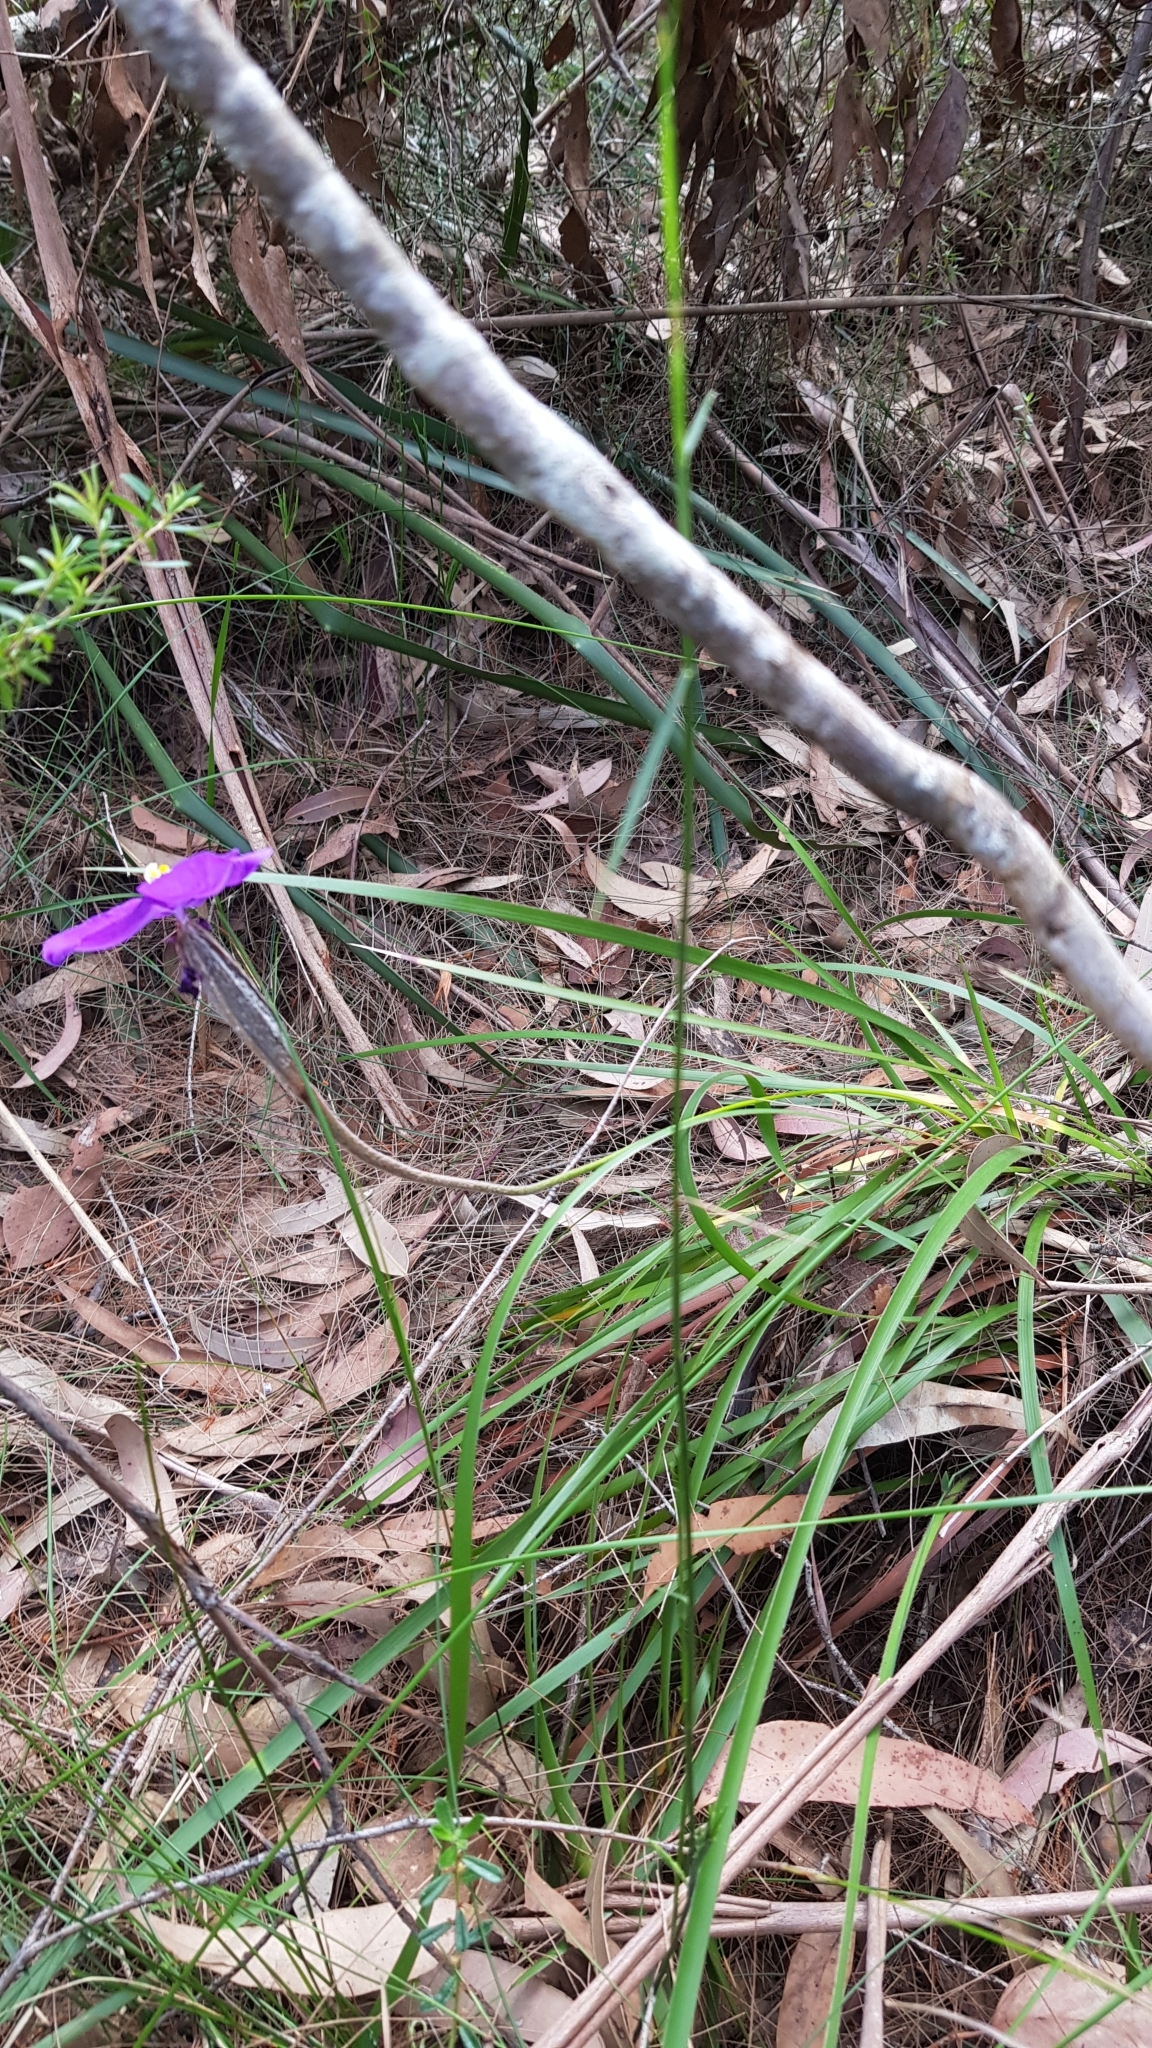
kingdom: Plantae
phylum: Tracheophyta
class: Liliopsida
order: Asparagales
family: Iridaceae
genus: Patersonia
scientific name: Patersonia sericea
